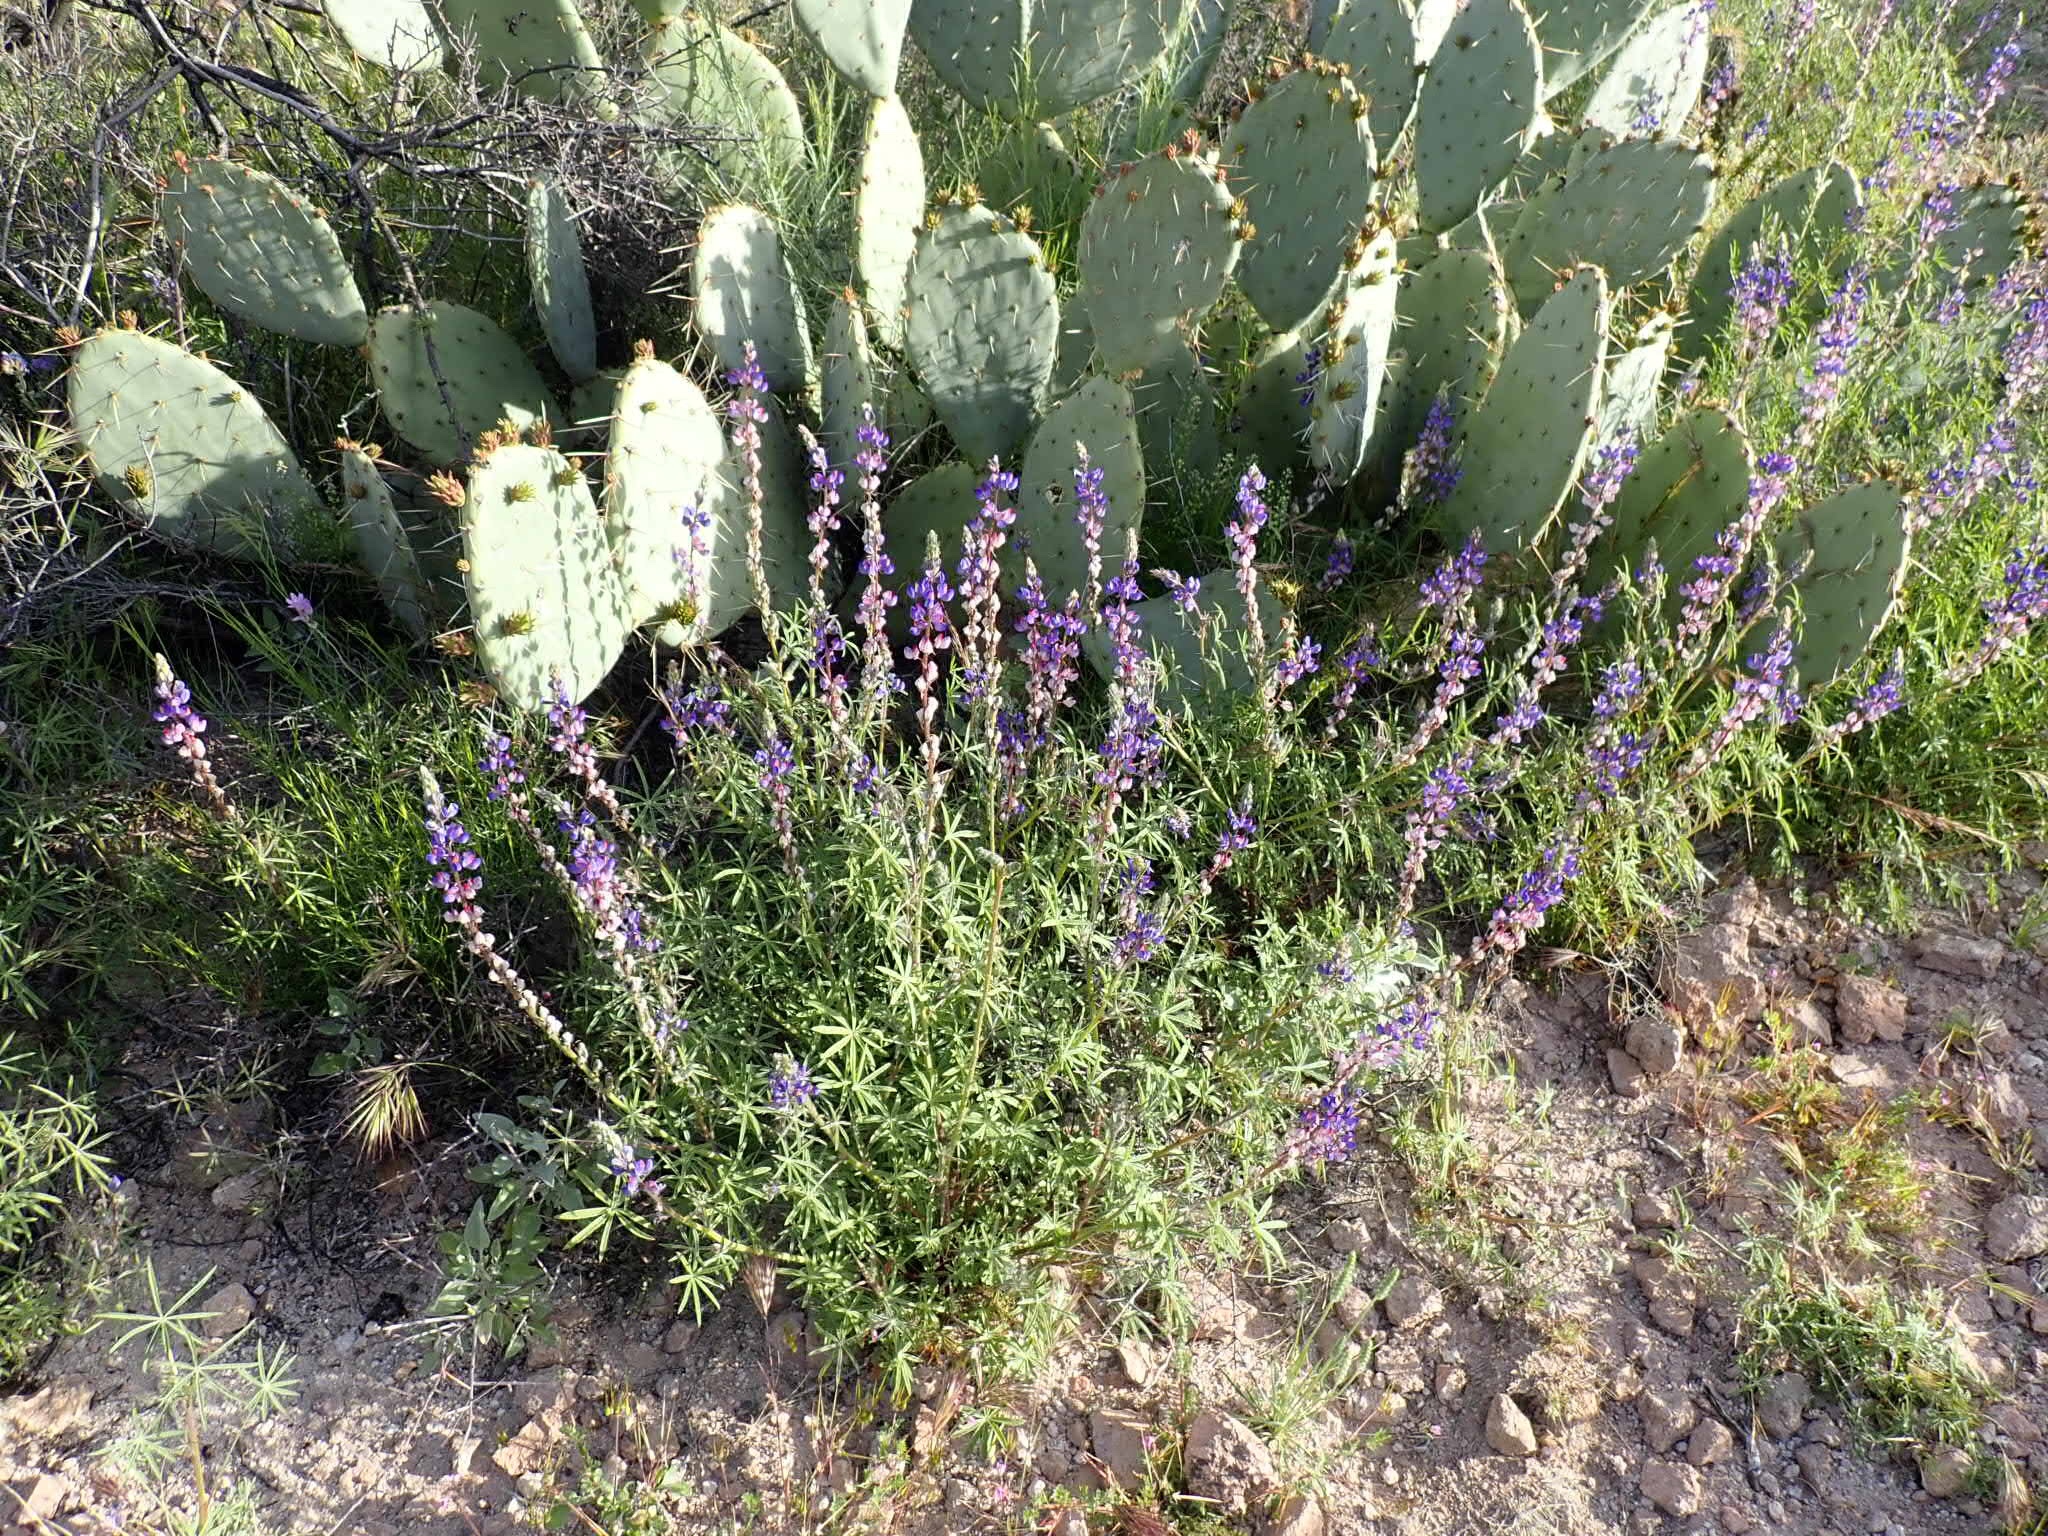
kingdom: Plantae
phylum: Tracheophyta
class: Magnoliopsida
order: Fabales
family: Fabaceae
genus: Lupinus
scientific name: Lupinus sparsiflorus
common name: Coulter's lupine
